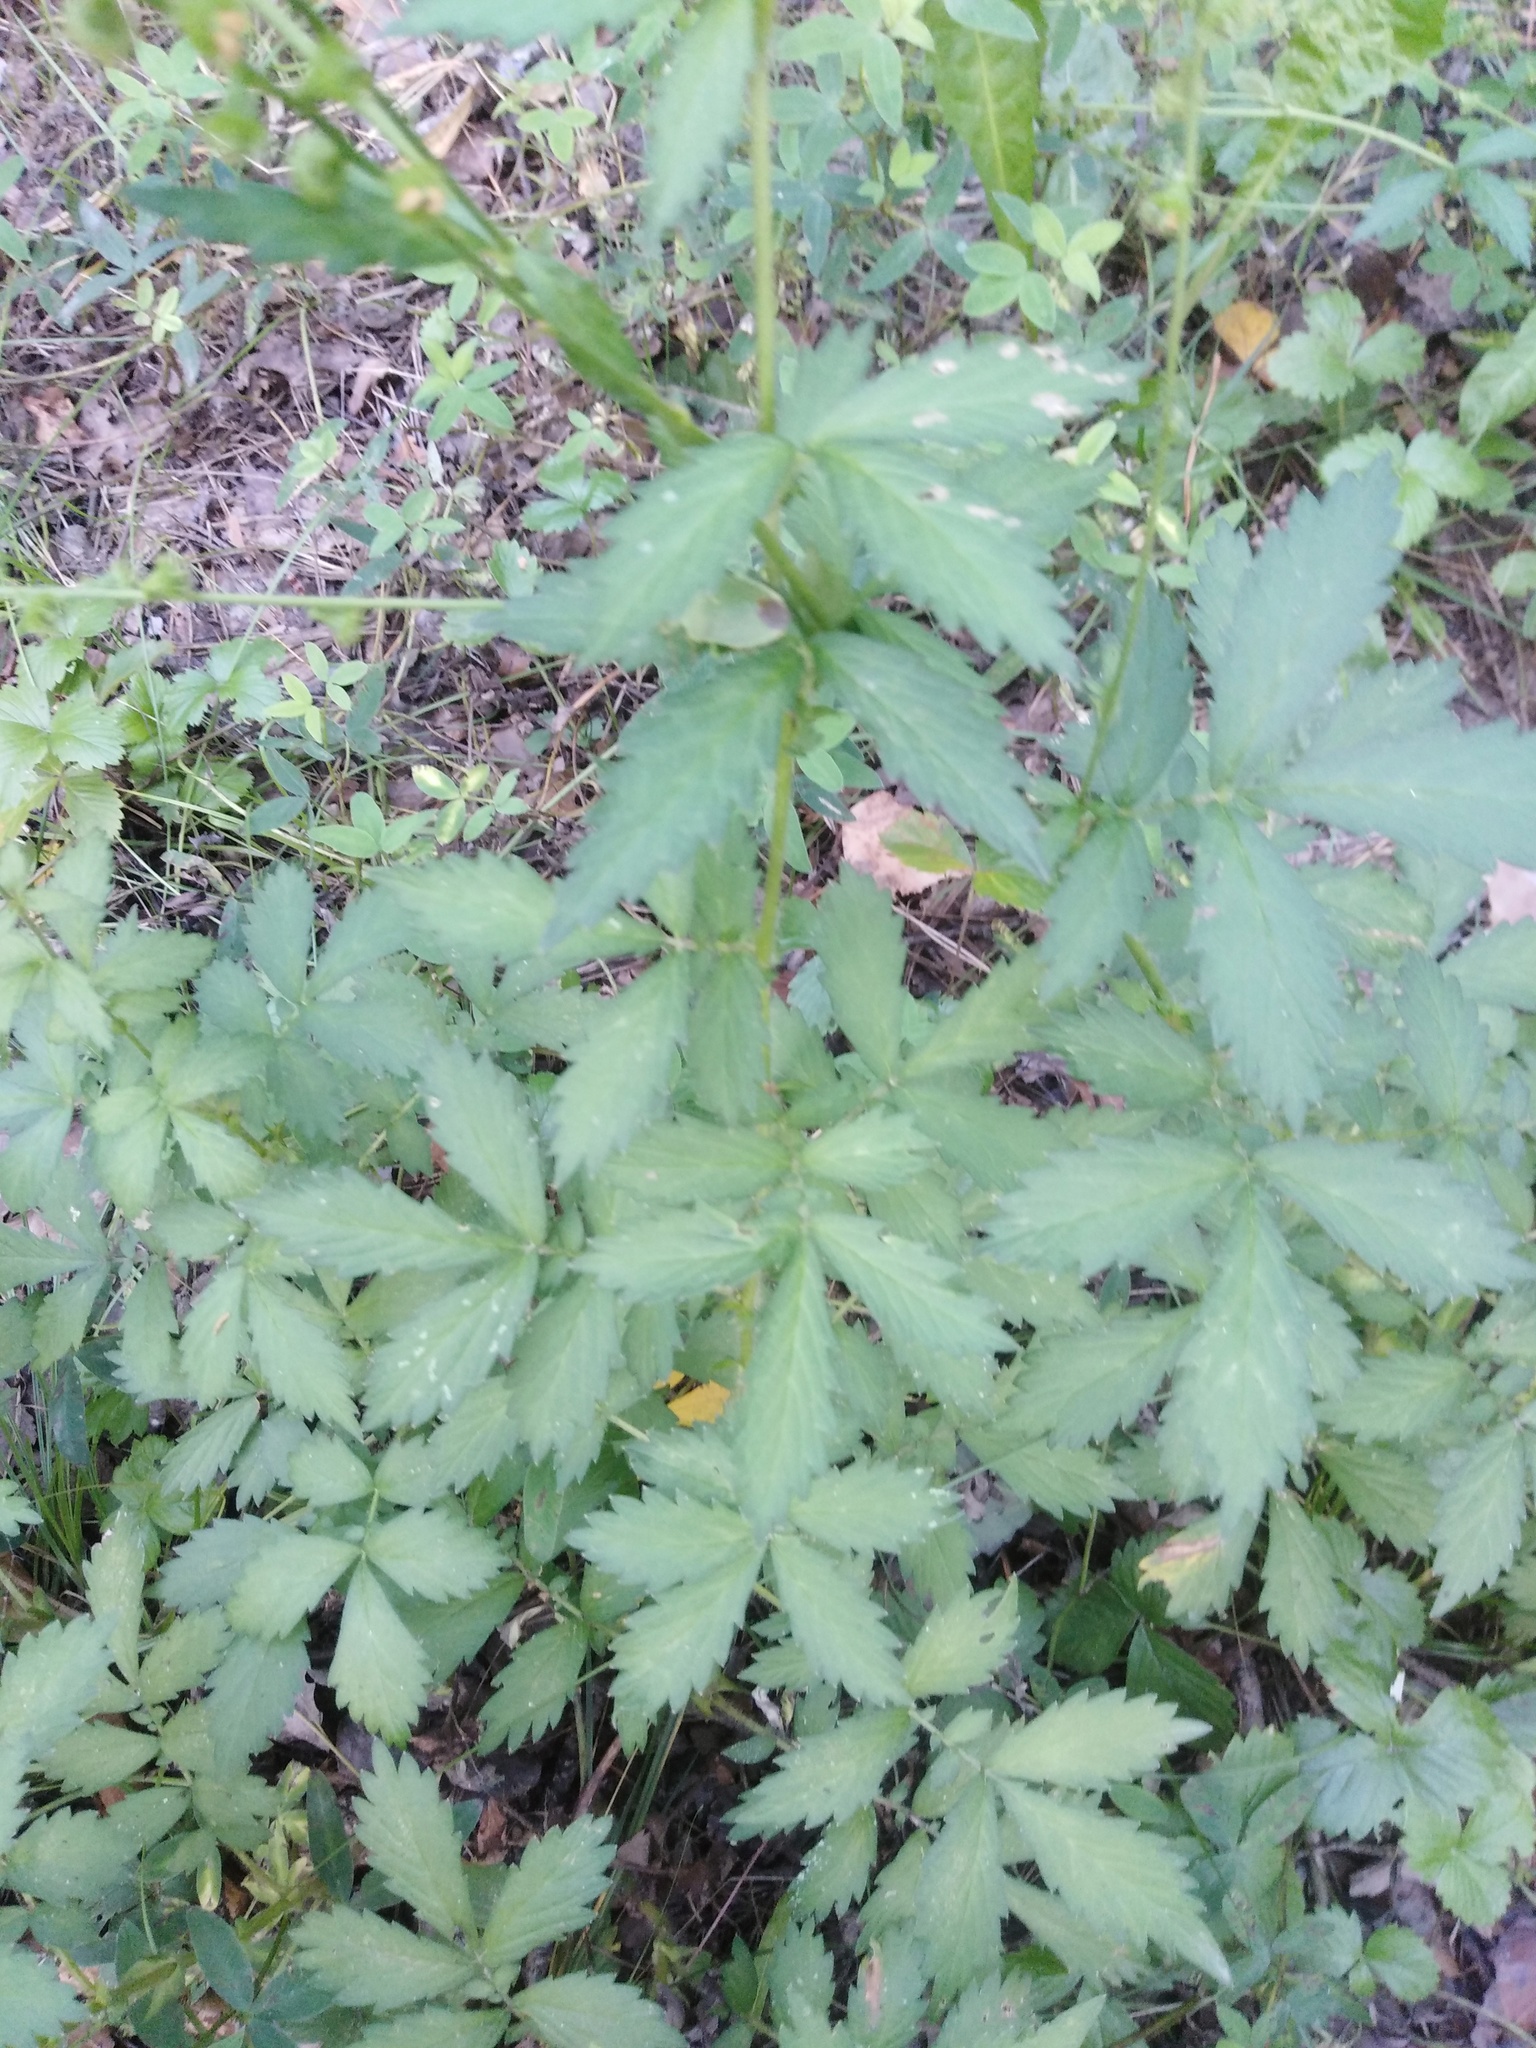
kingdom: Plantae
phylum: Tracheophyta
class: Magnoliopsida
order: Rosales
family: Rosaceae
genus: Agrimonia
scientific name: Agrimonia pilosa
